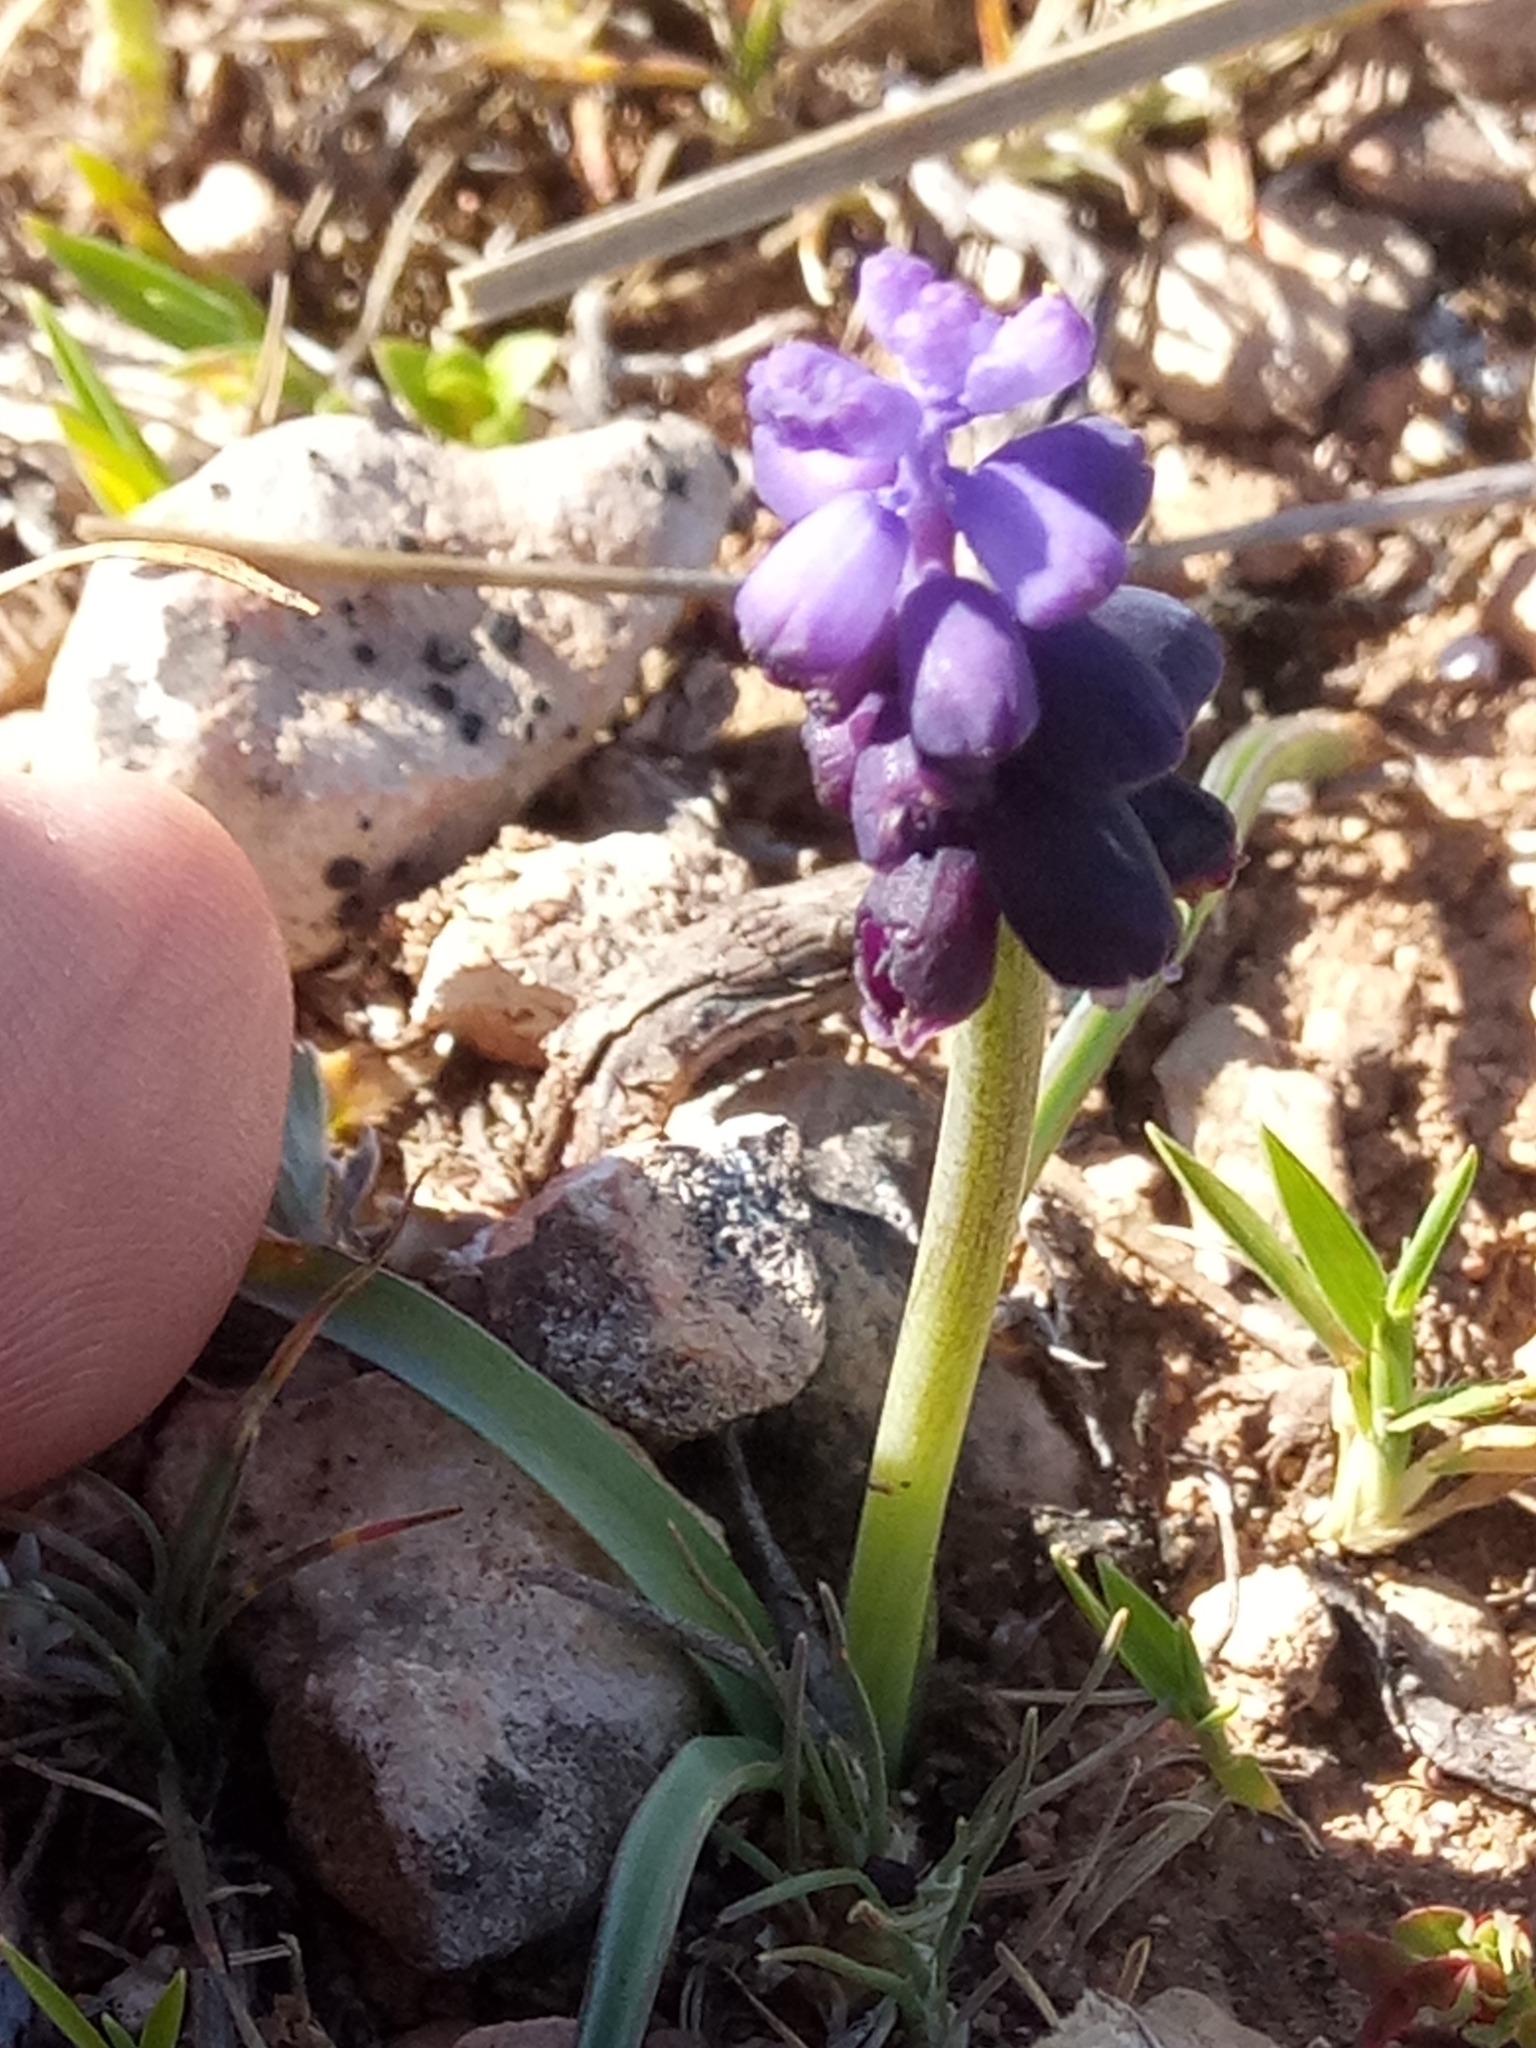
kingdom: Plantae
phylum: Tracheophyta
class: Liliopsida
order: Asparagales
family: Asparagaceae
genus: Muscari
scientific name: Muscari baeticum
